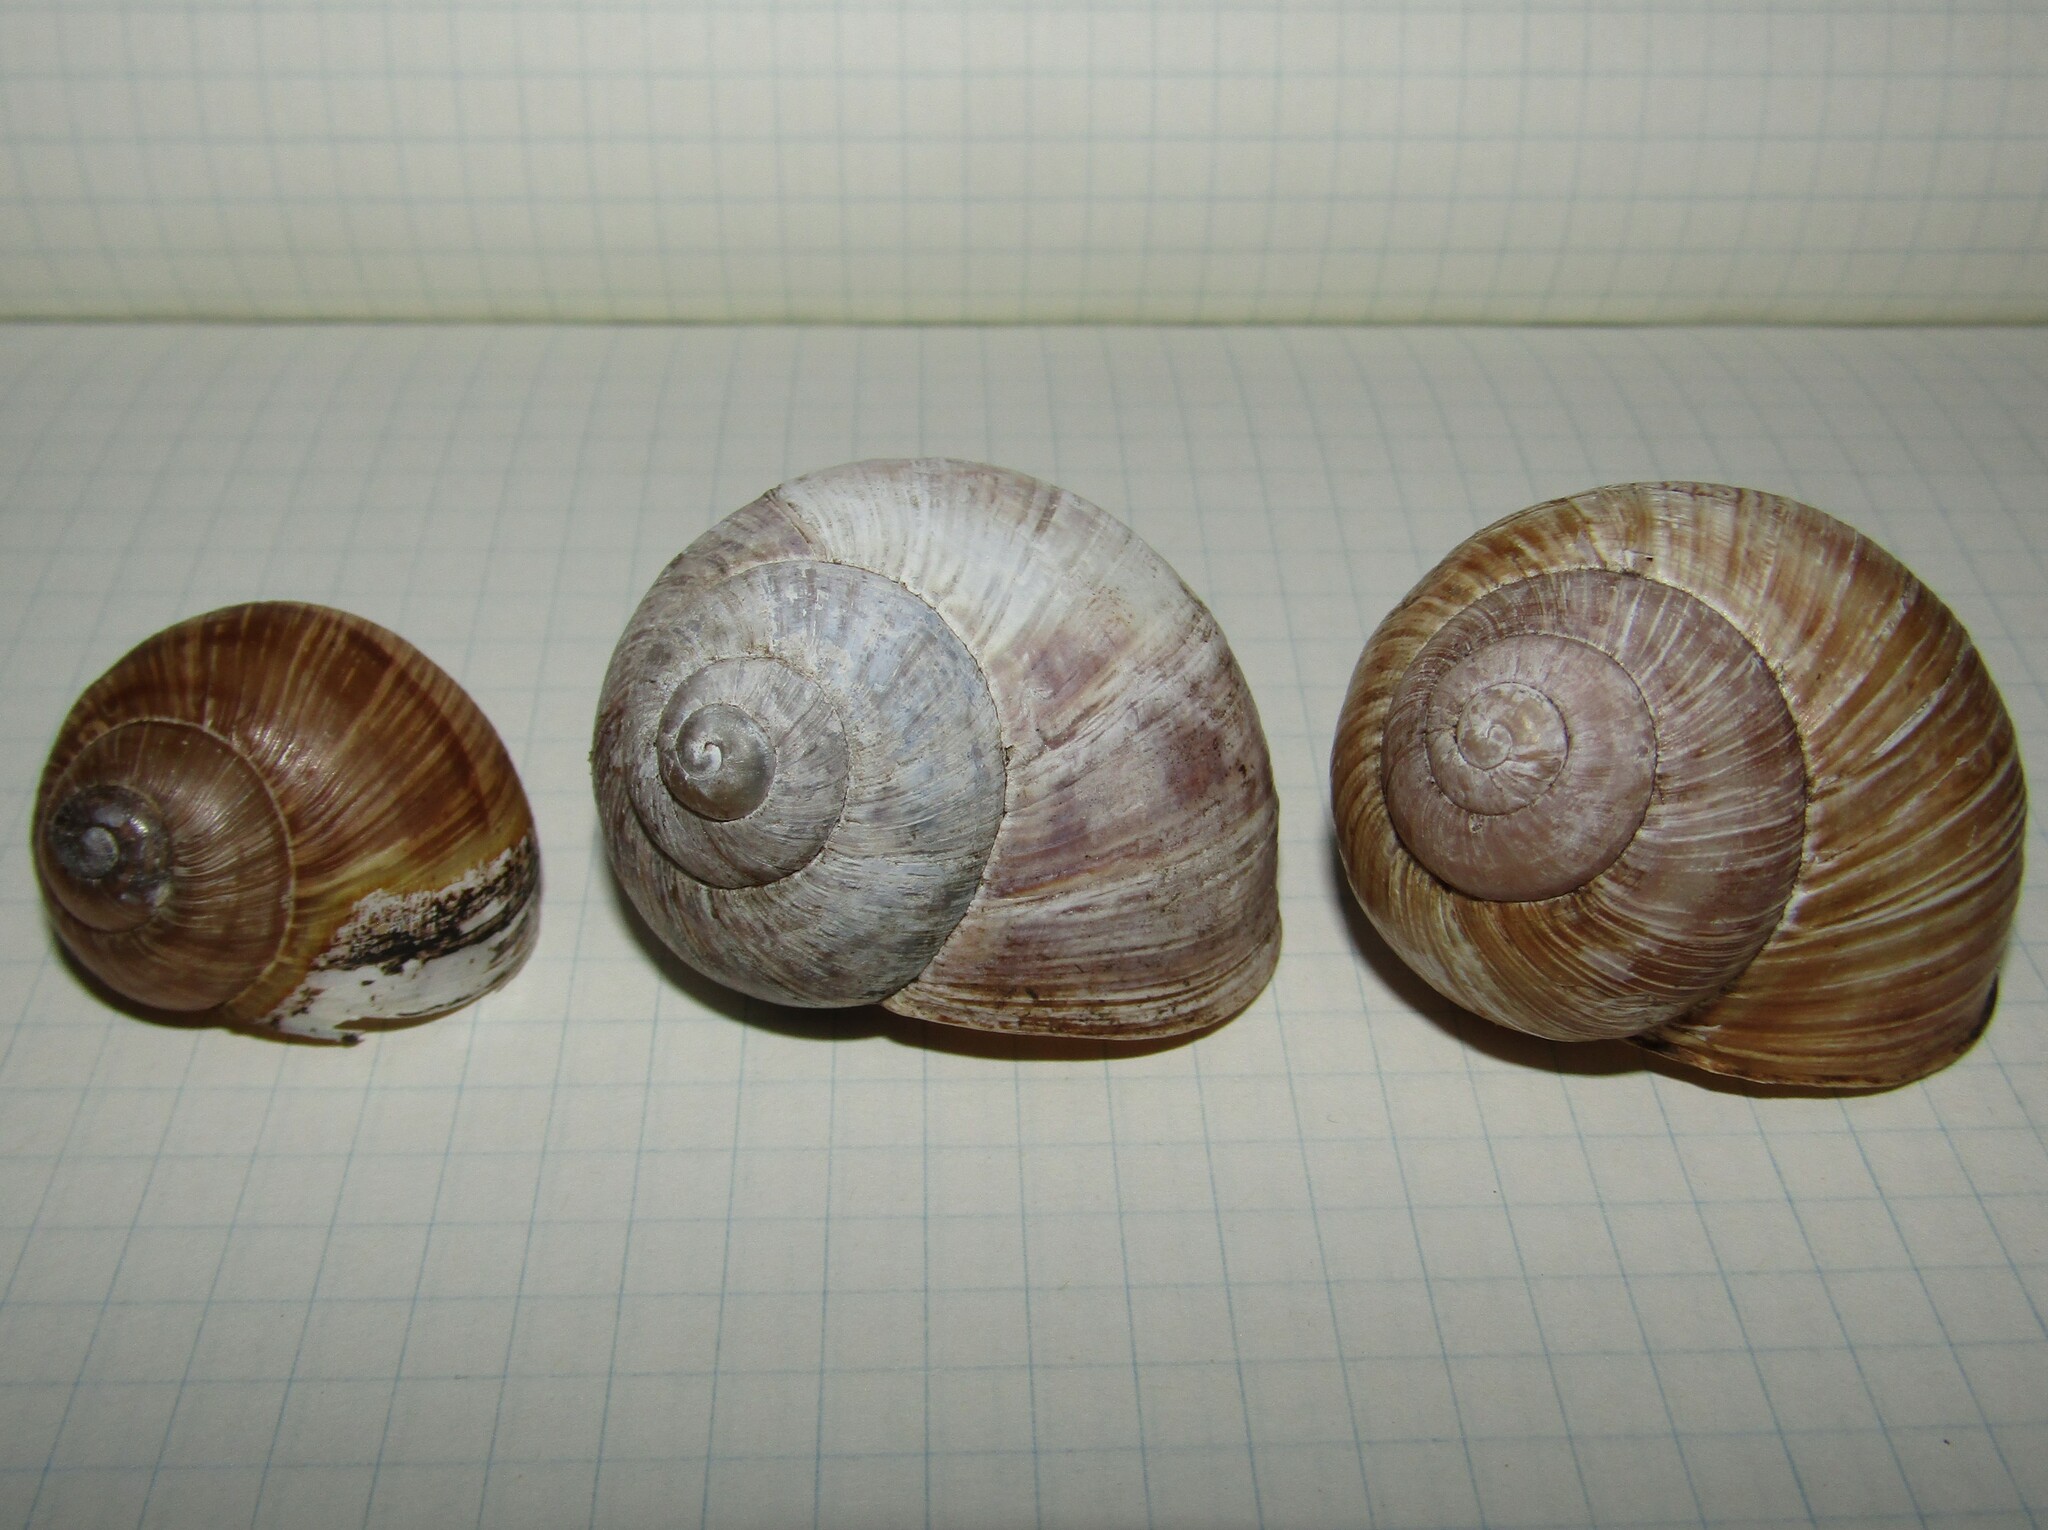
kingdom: Animalia
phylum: Mollusca
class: Gastropoda
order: Stylommatophora
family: Helicidae
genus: Helix
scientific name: Helix pomatia
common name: Roman snail
